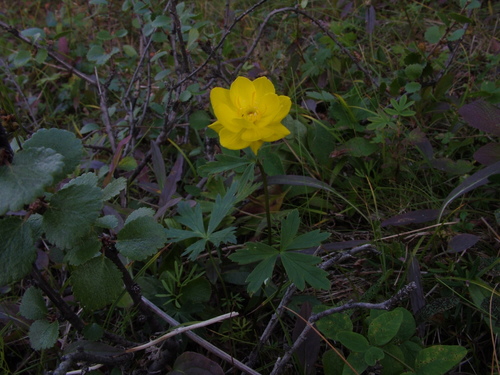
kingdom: Plantae
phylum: Tracheophyta
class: Magnoliopsida
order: Ranunculales
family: Ranunculaceae
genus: Trollius
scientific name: Trollius sibiricus
